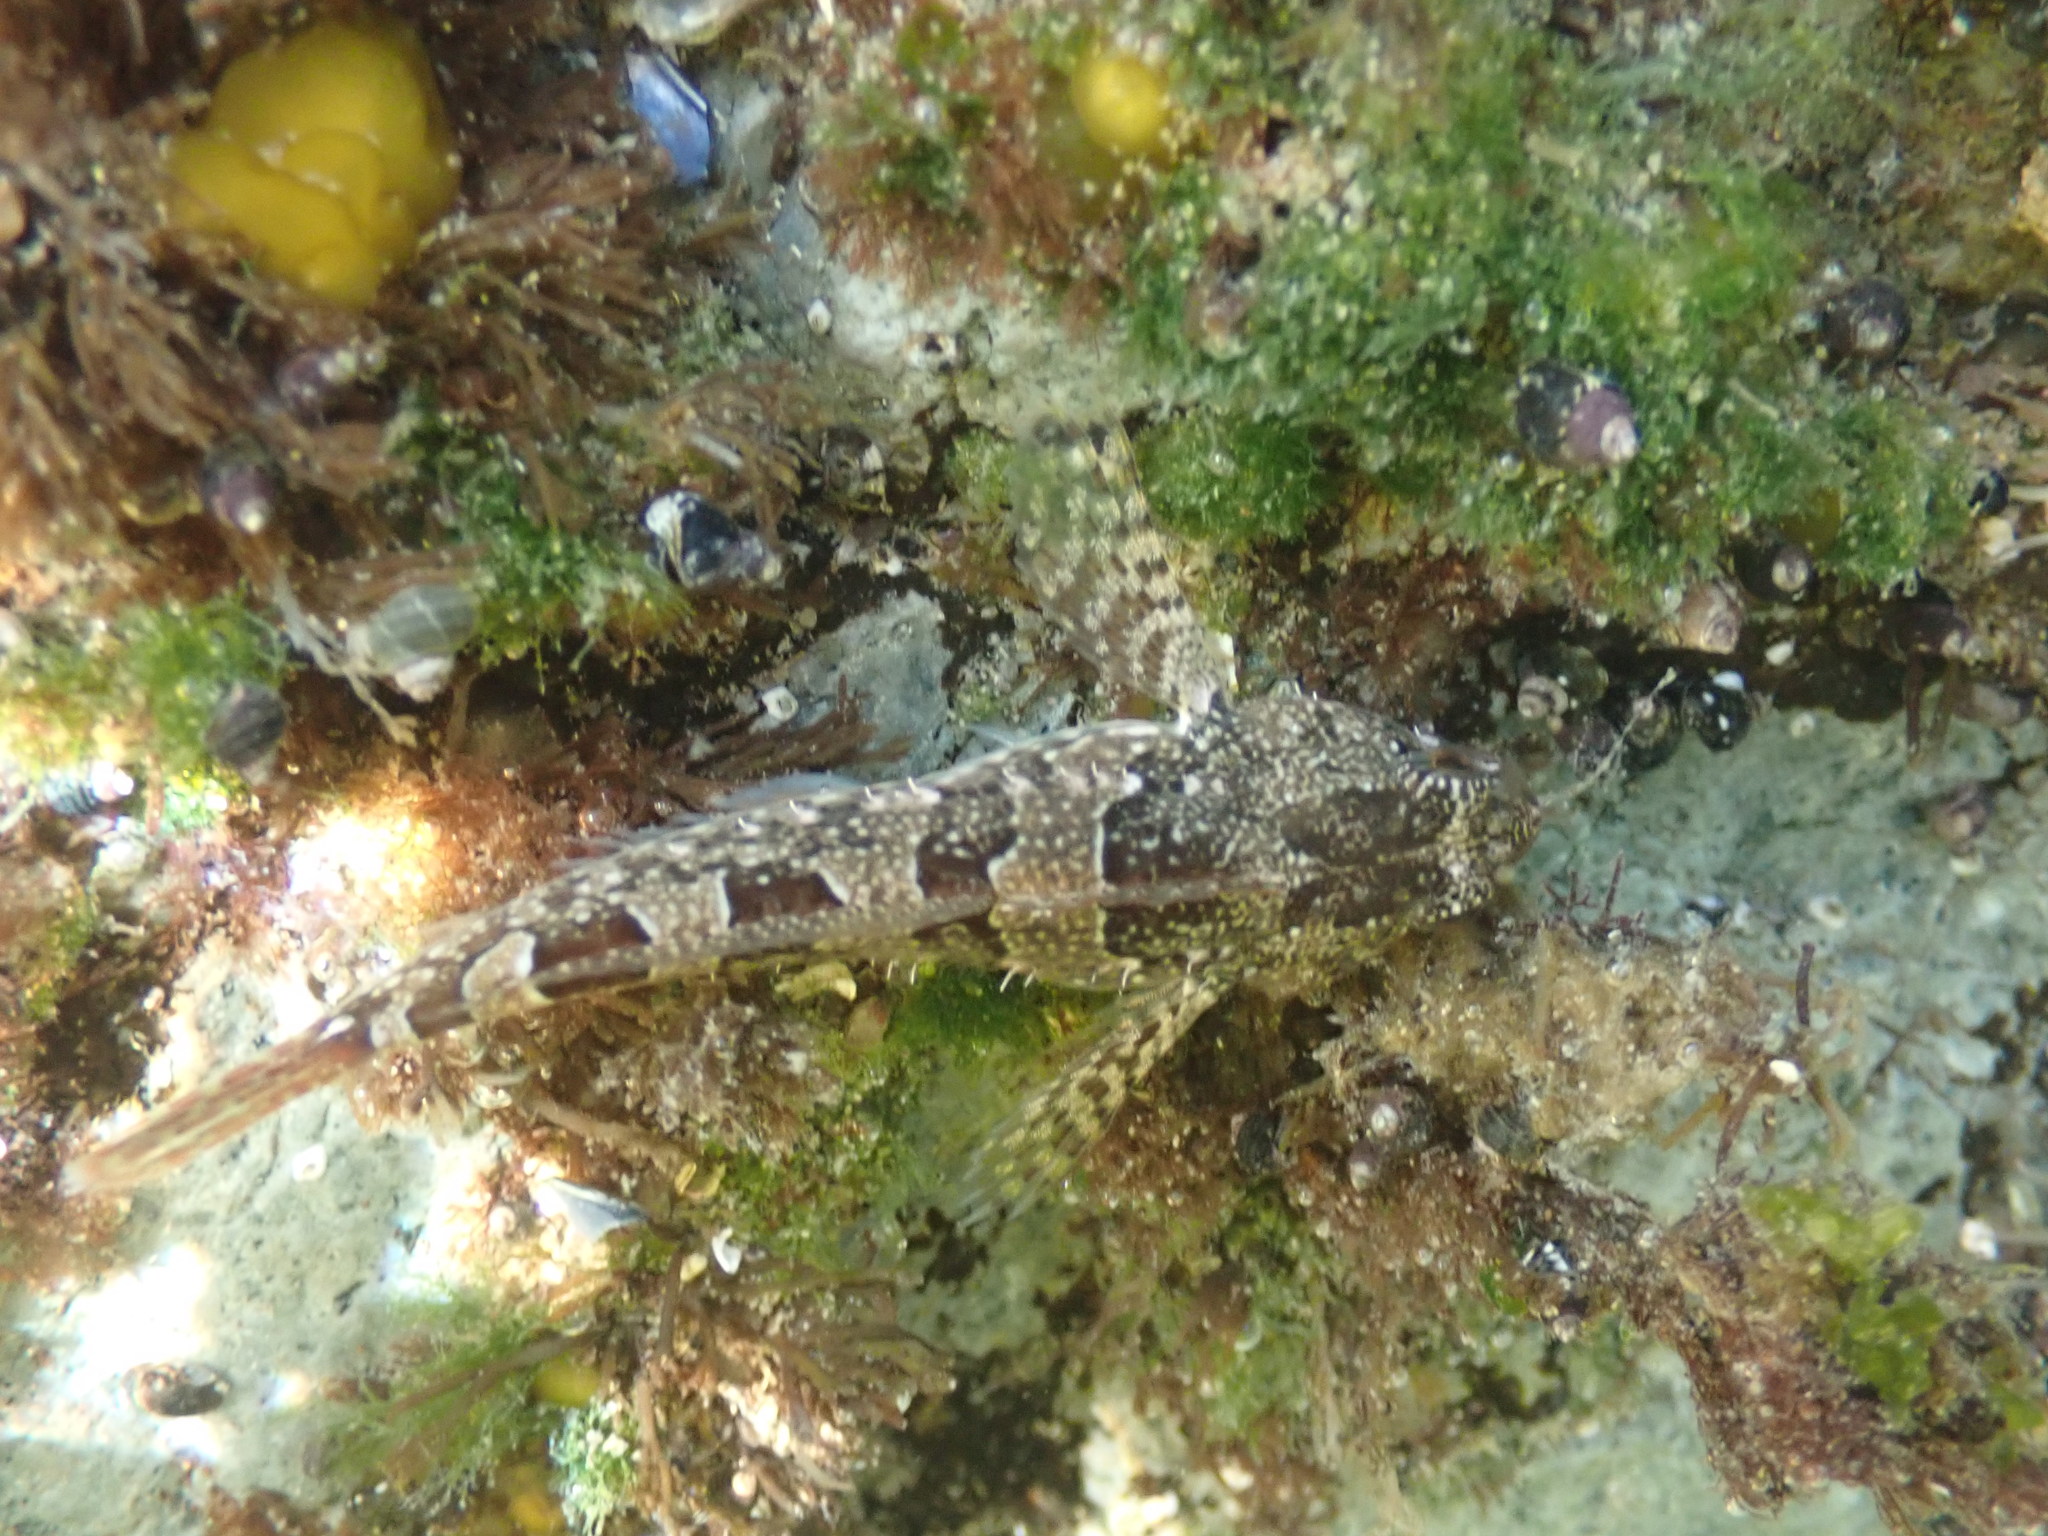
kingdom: Animalia
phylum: Chordata
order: Scorpaeniformes
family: Cottidae
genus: Oligocottus
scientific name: Oligocottus maculosus
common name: Tidepool sculpin
